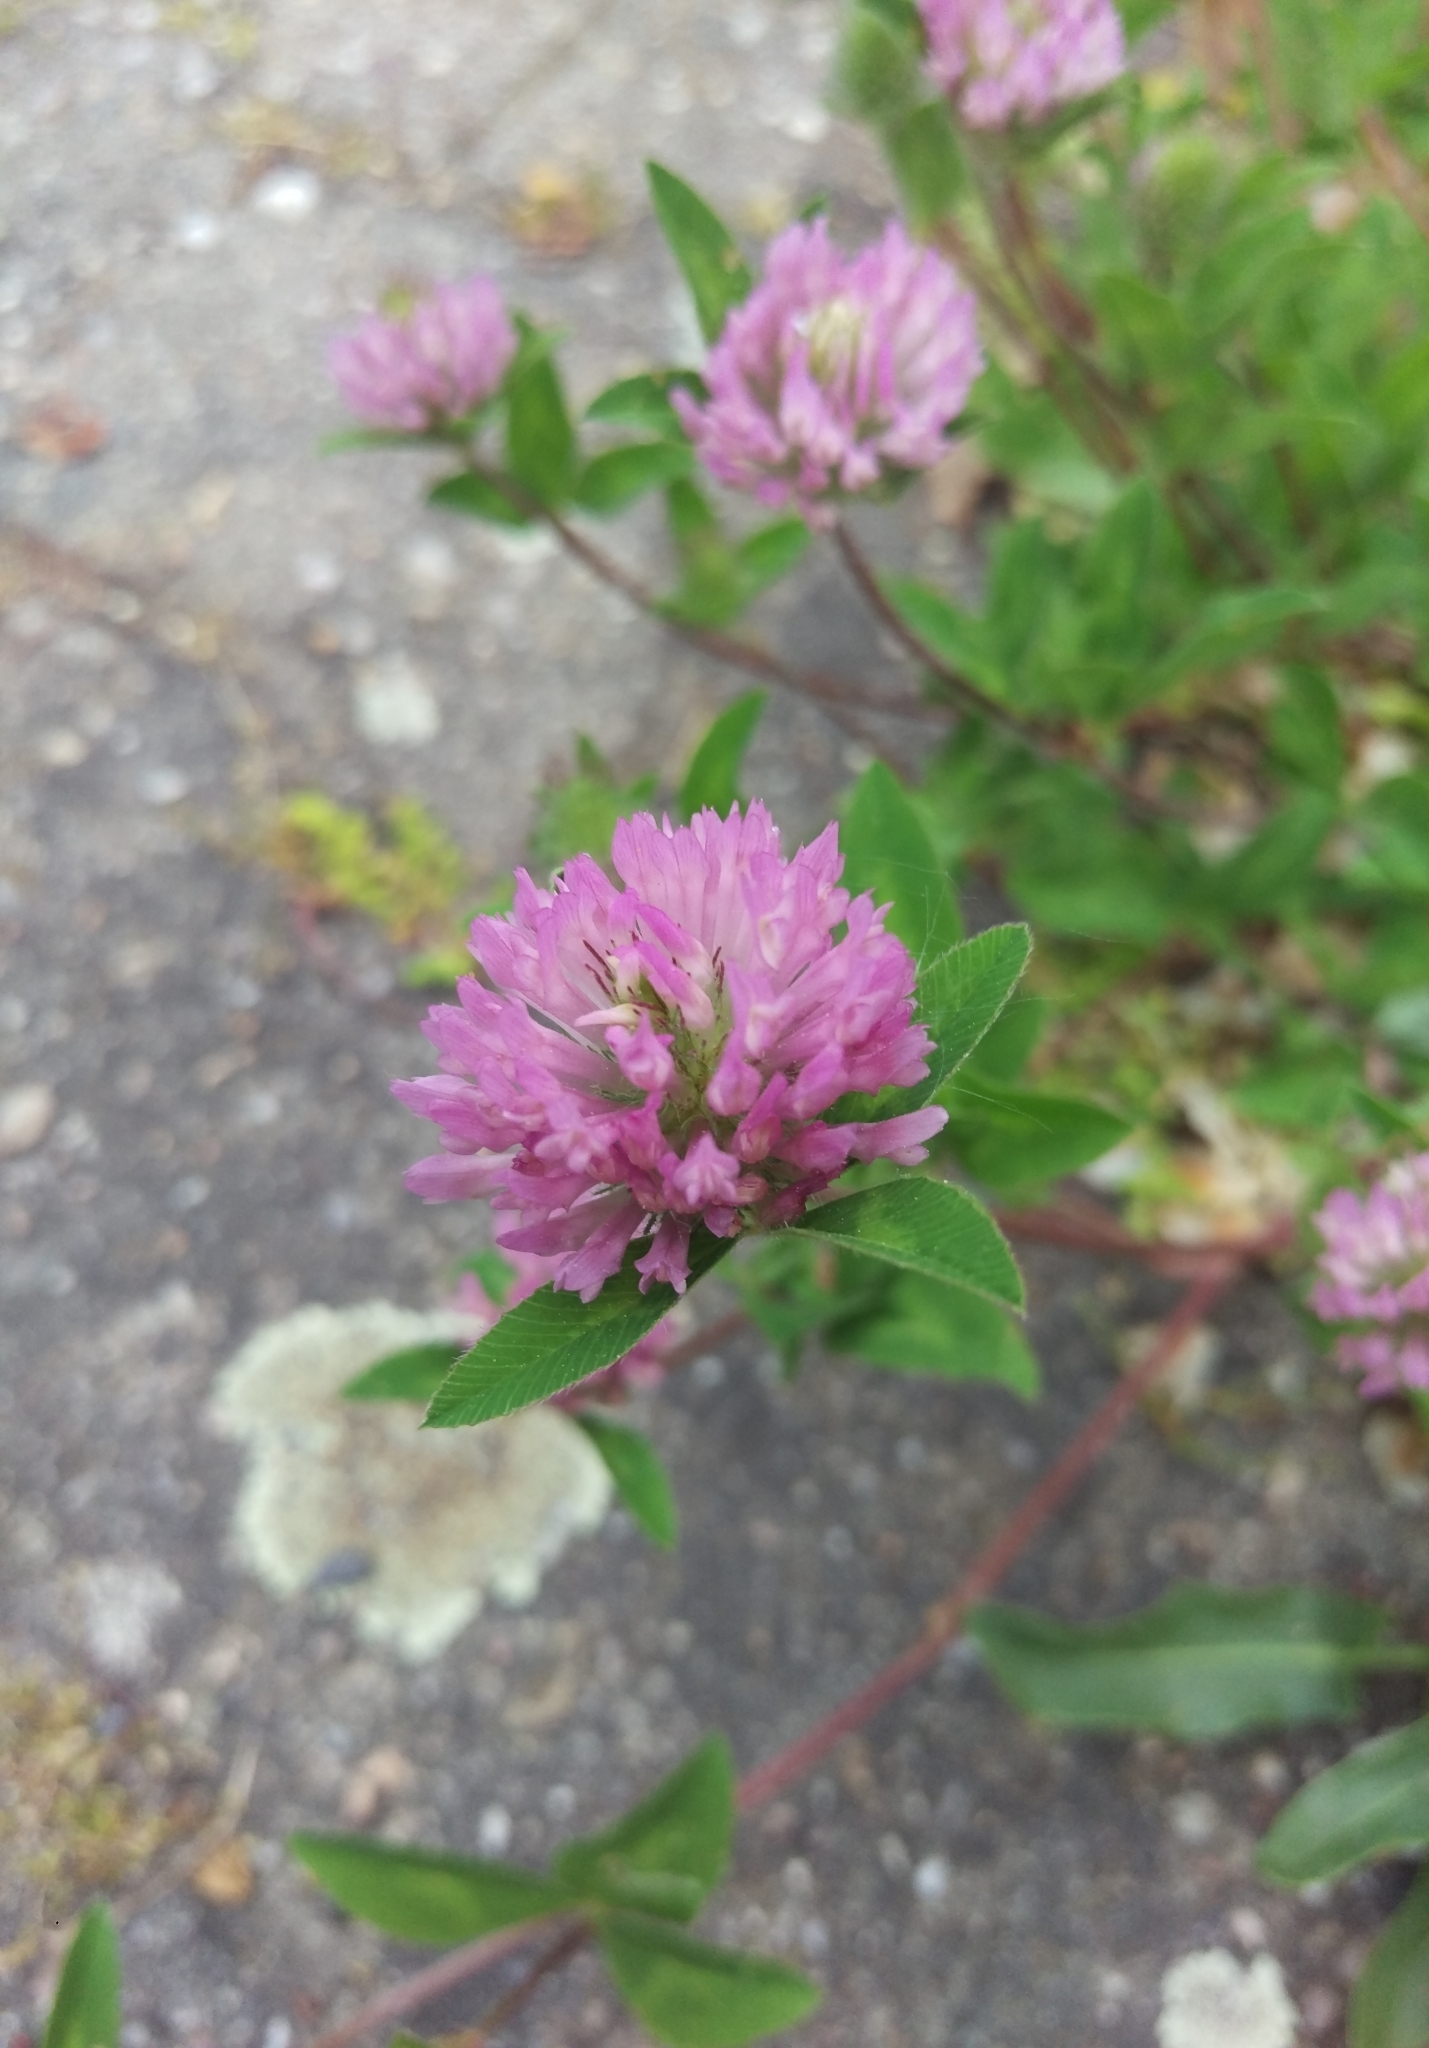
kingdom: Plantae
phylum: Tracheophyta
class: Magnoliopsida
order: Fabales
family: Fabaceae
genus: Trifolium
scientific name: Trifolium pratense
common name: Red clover
